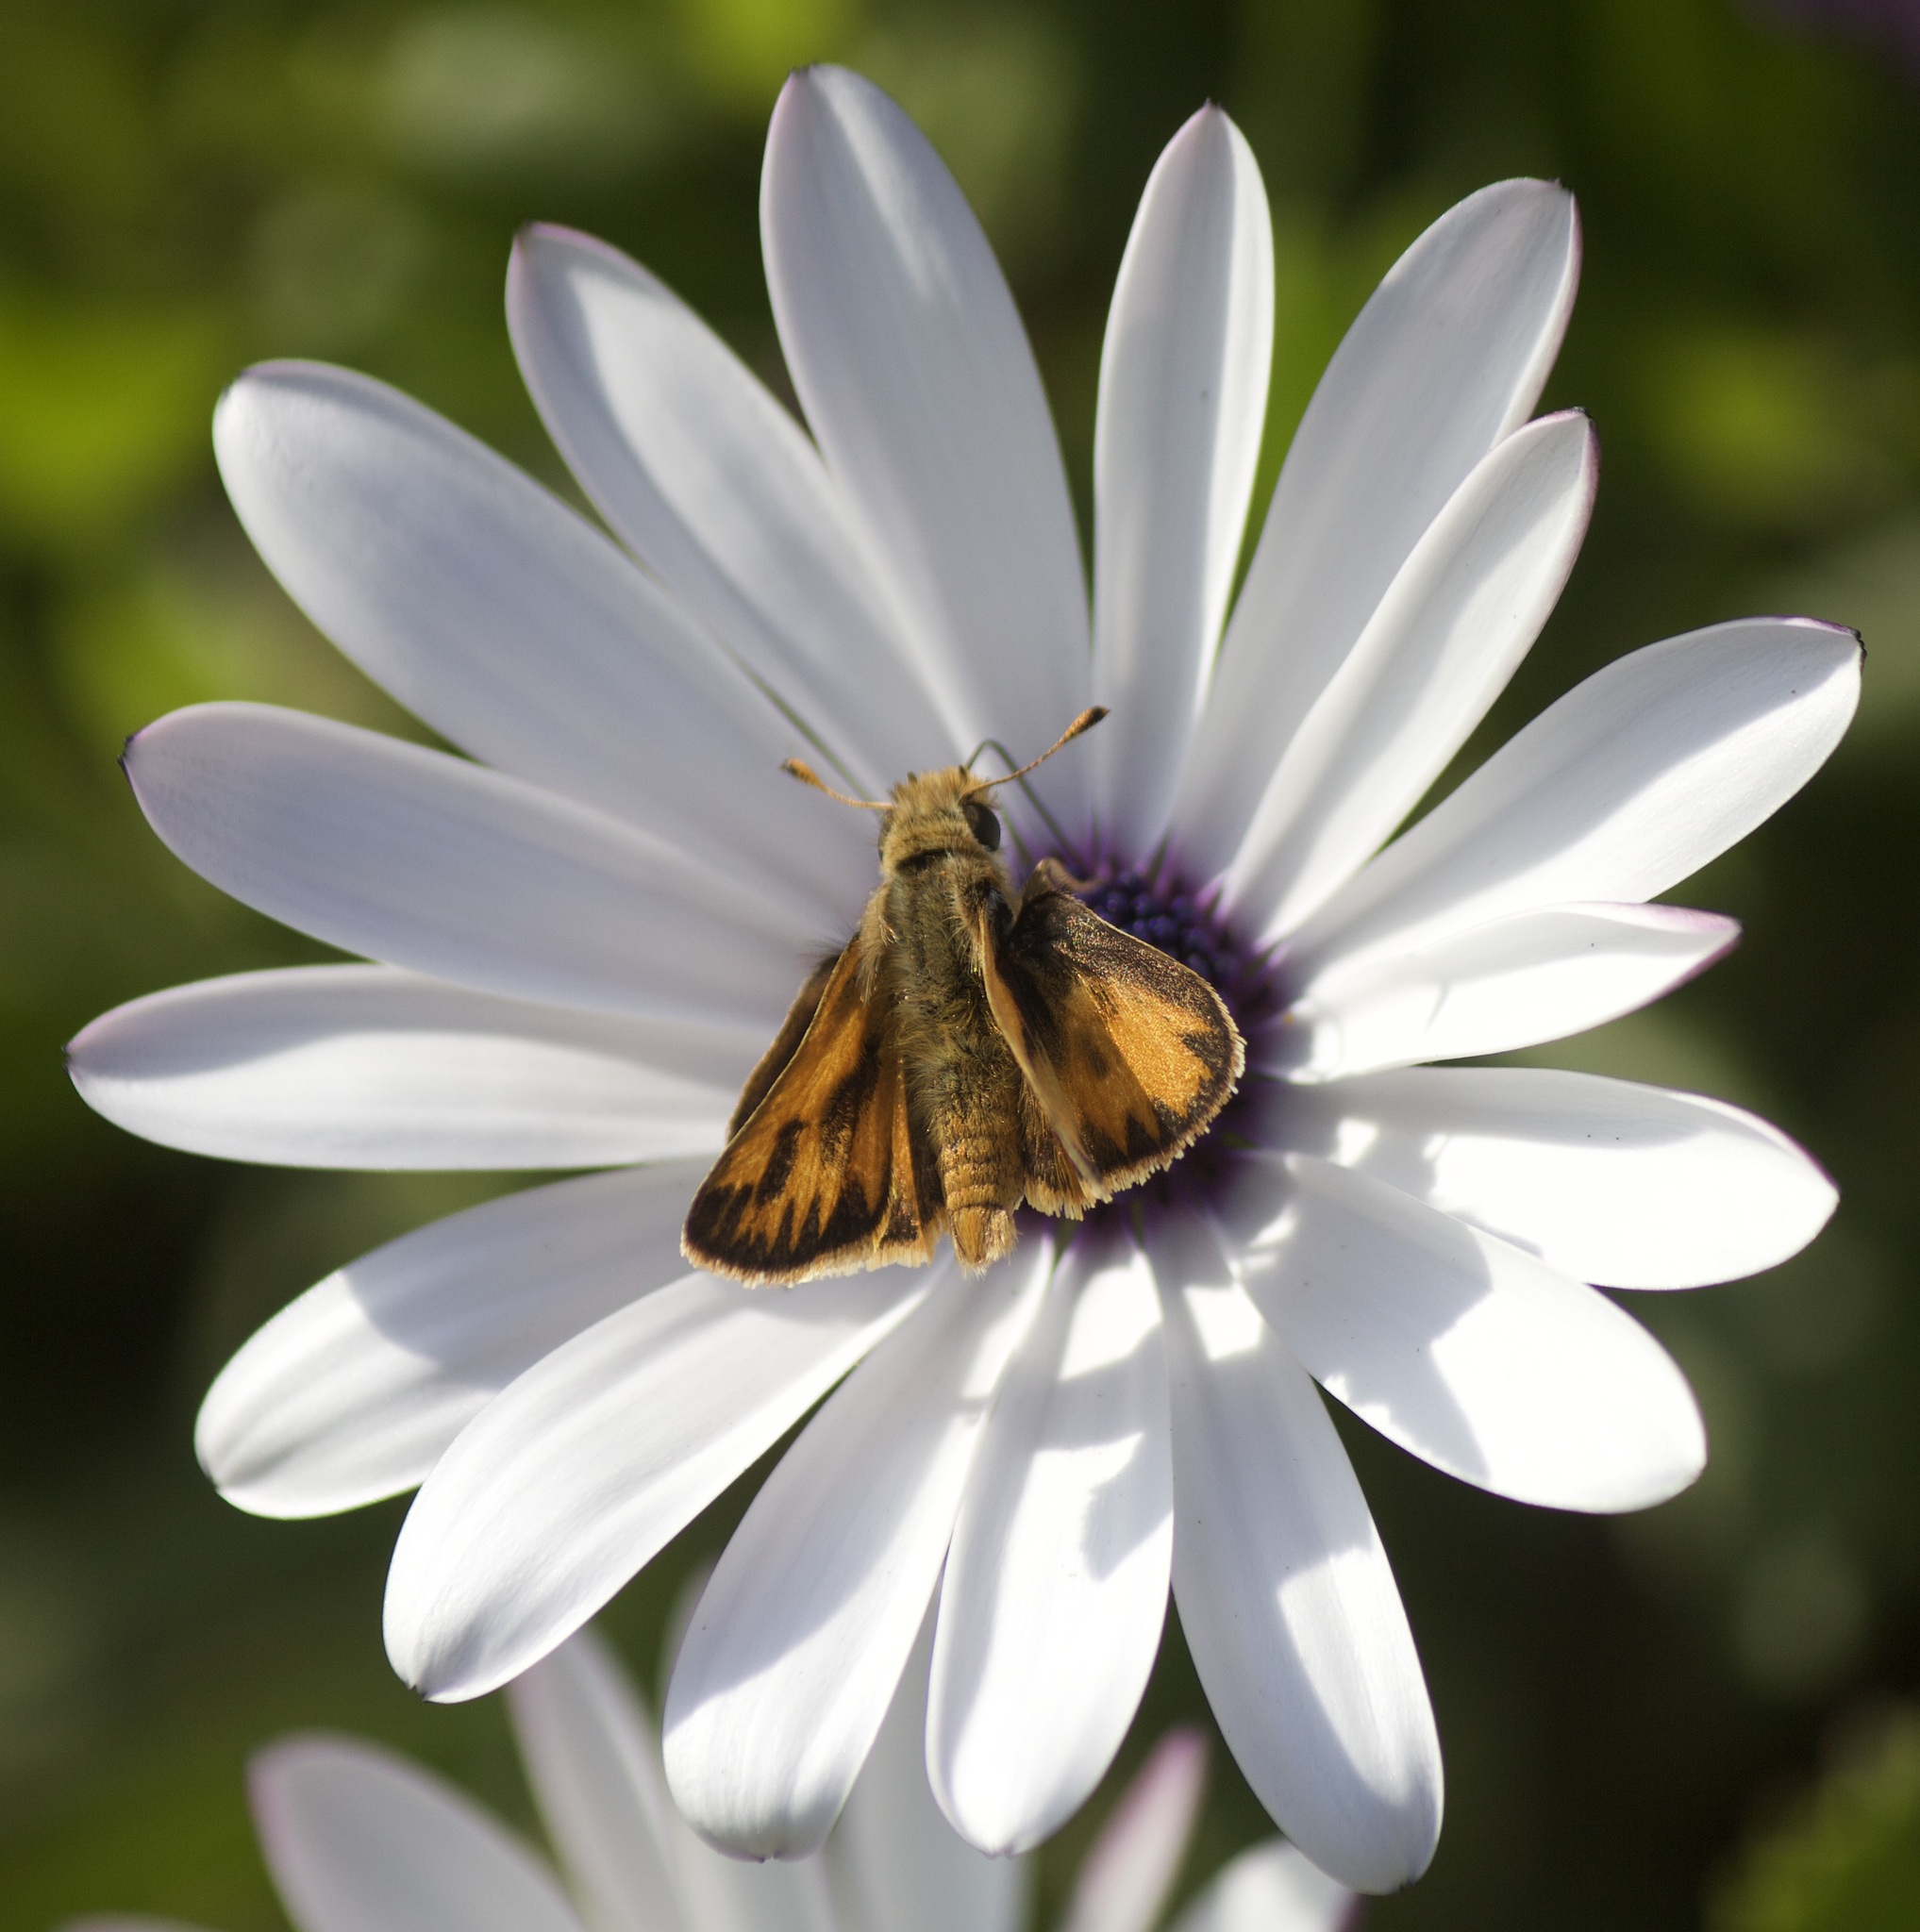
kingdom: Animalia
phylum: Arthropoda
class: Insecta
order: Lepidoptera
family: Hesperiidae
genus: Hylephila
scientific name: Hylephila fasciolata
